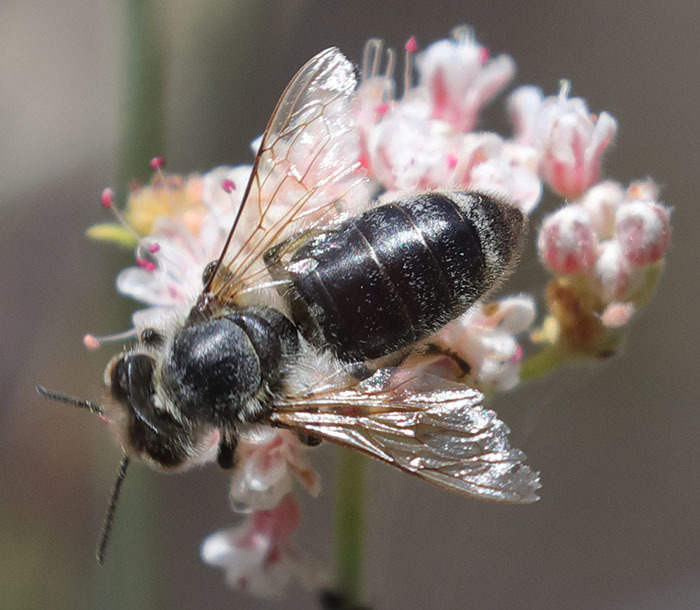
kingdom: Animalia
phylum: Arthropoda
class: Insecta
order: Hymenoptera
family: Apidae
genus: Apis
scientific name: Apis mellifera
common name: Honey bee
